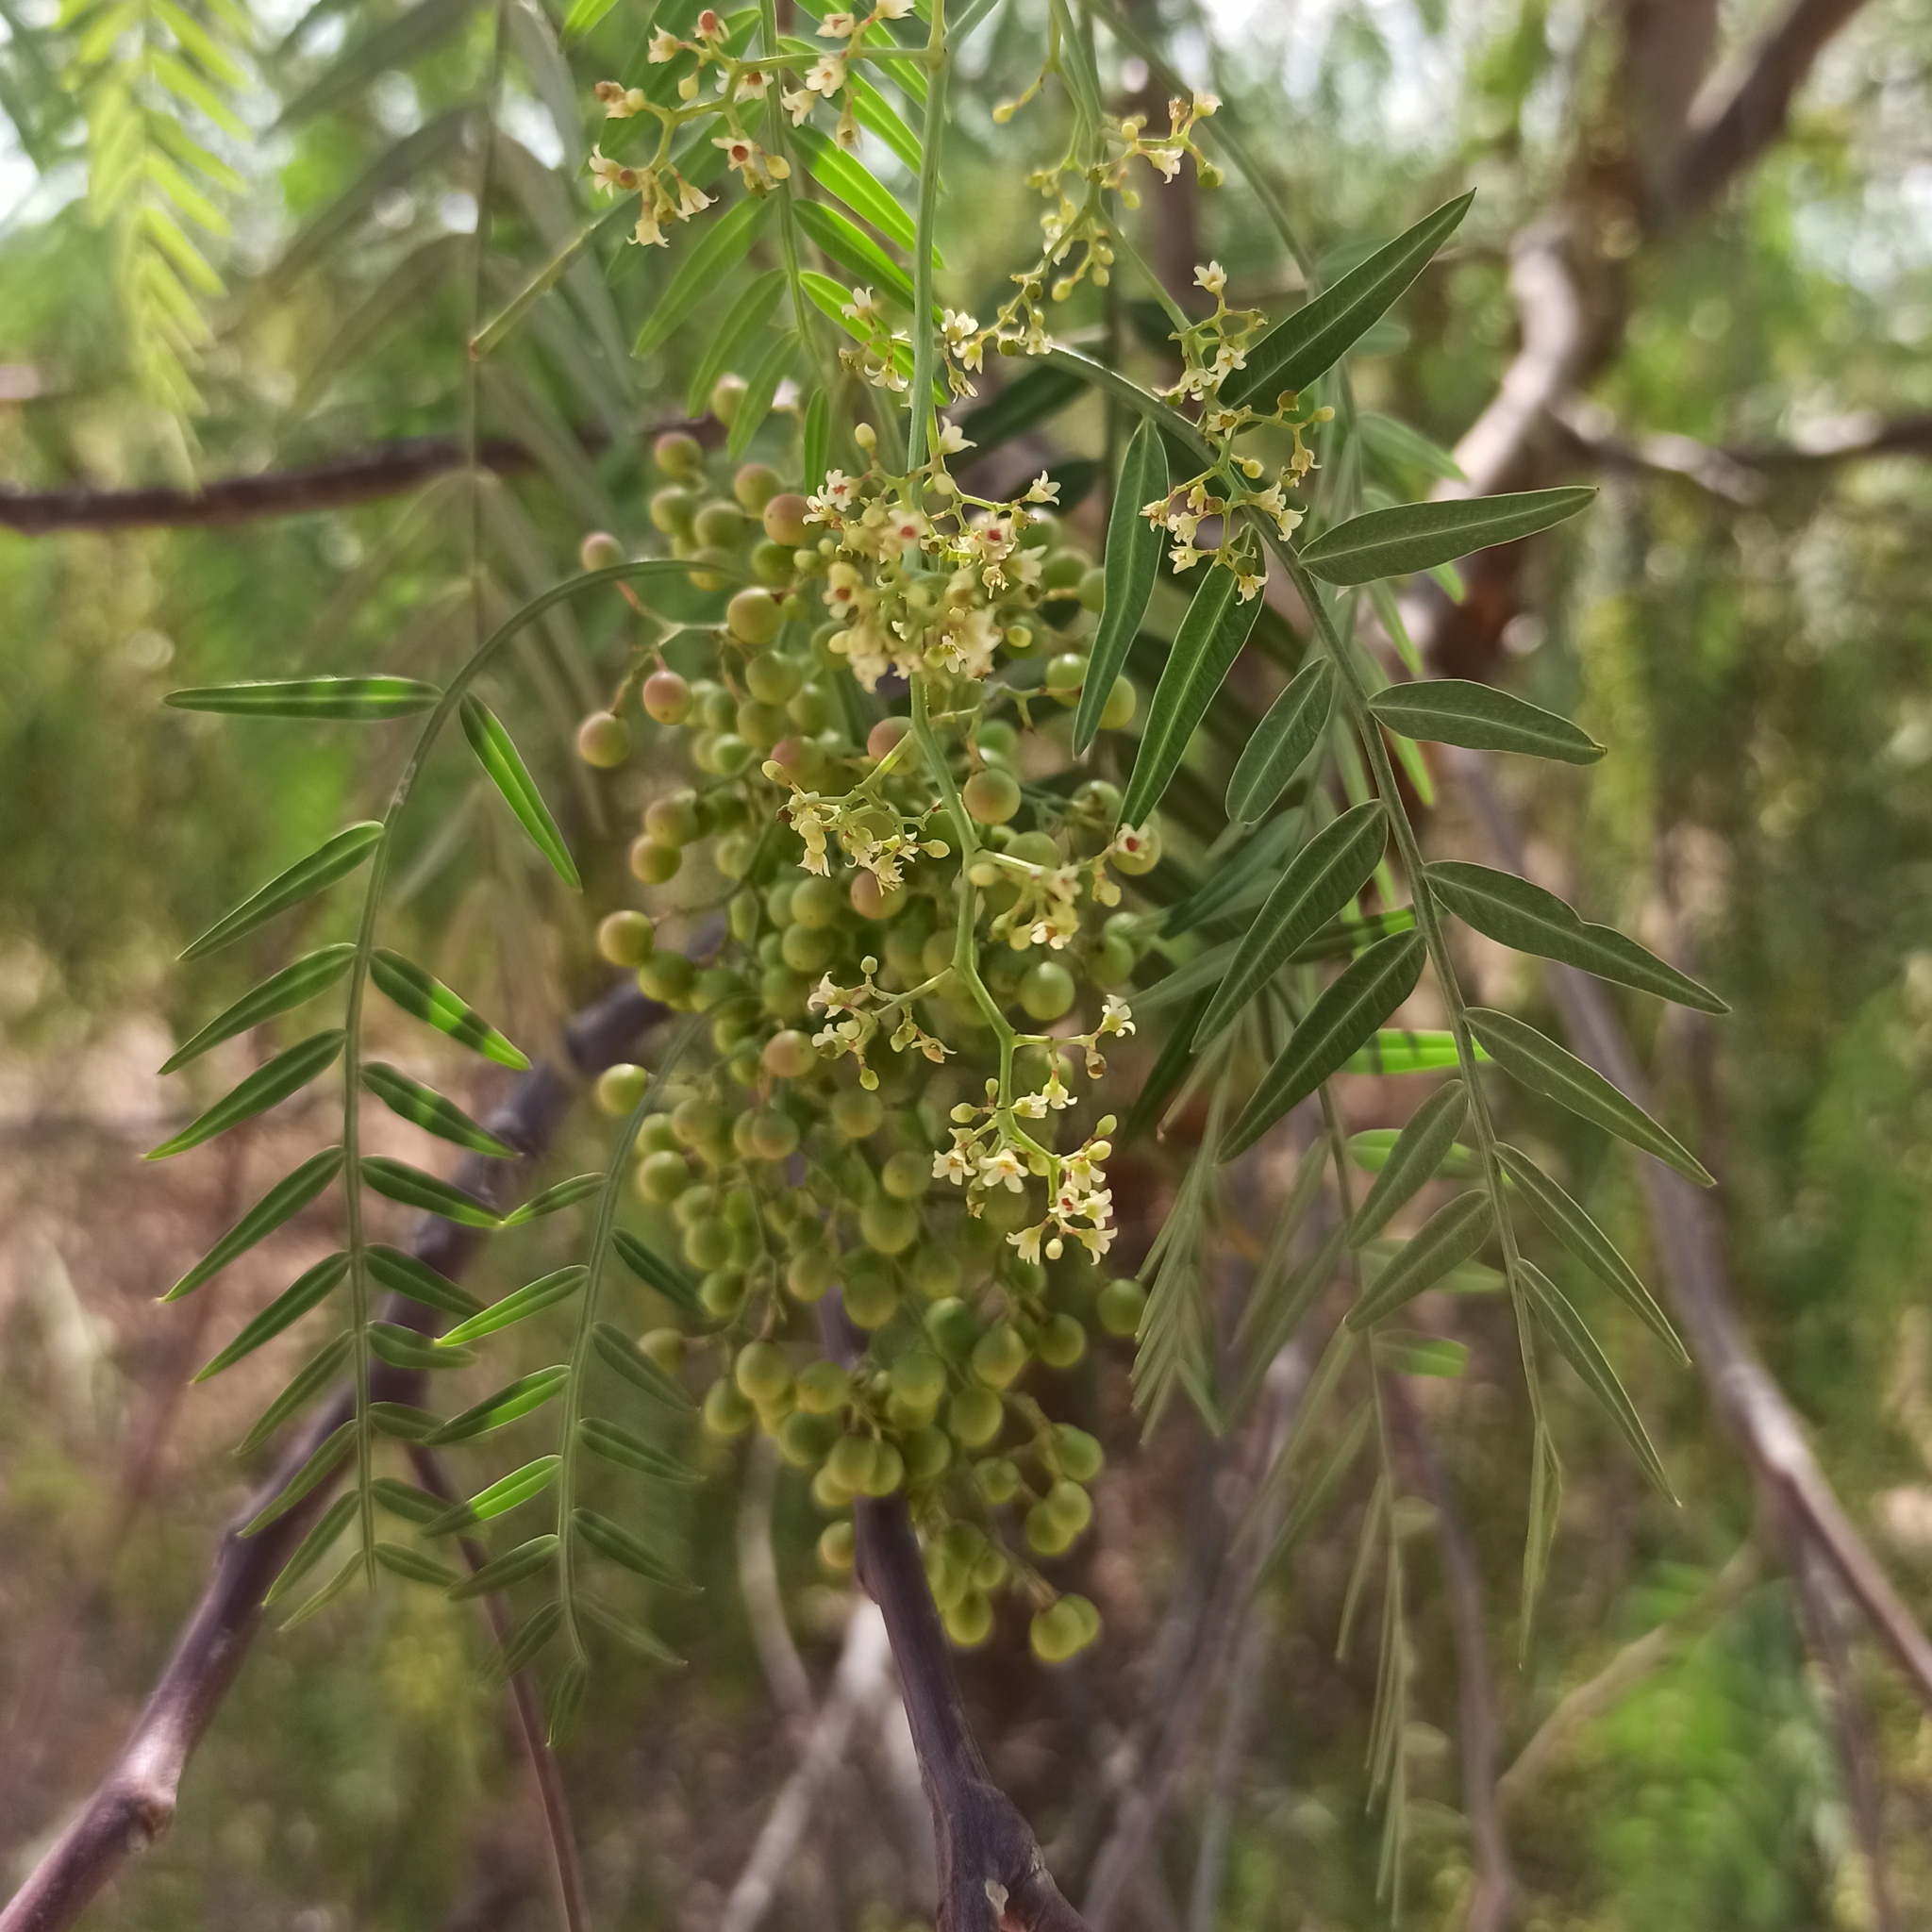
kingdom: Plantae
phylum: Tracheophyta
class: Magnoliopsida
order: Sapindales
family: Anacardiaceae
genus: Schinus
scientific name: Schinus molle
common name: Peruvian peppertree
